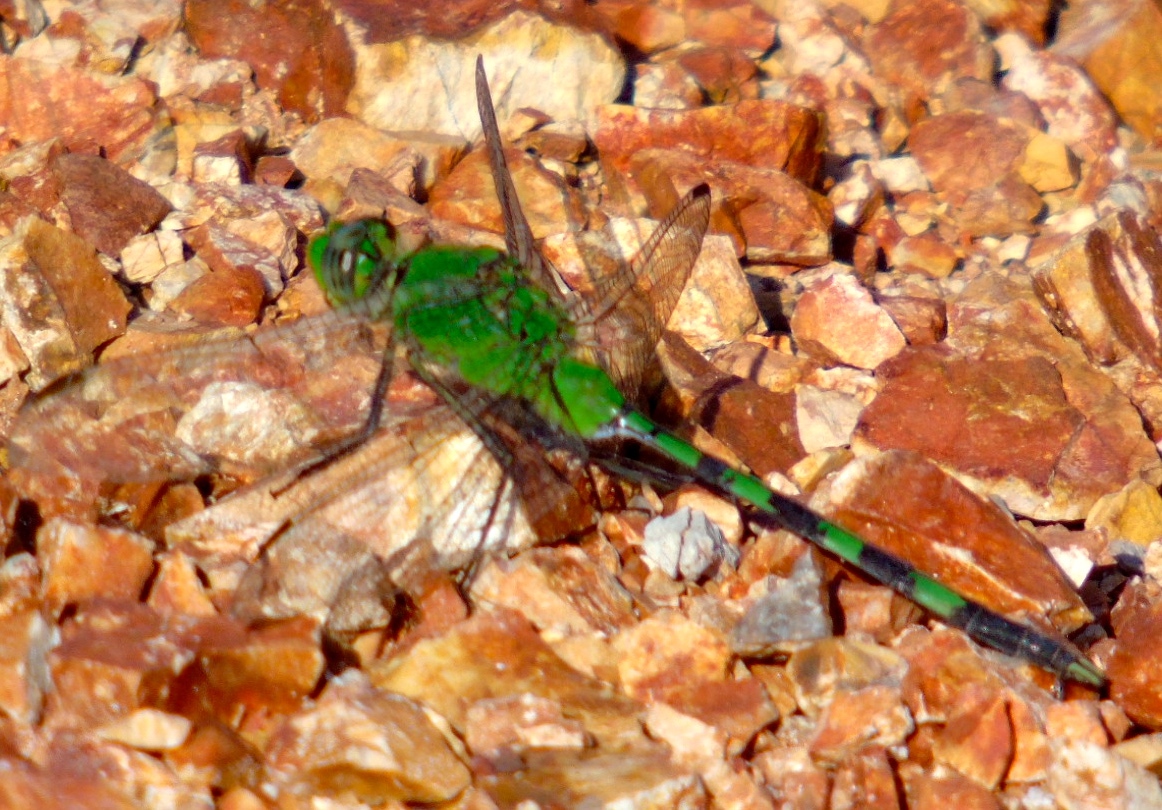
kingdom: Animalia
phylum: Arthropoda
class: Insecta
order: Odonata
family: Libellulidae
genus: Erythemis
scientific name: Erythemis vesiculosa
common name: Great pondhawk
